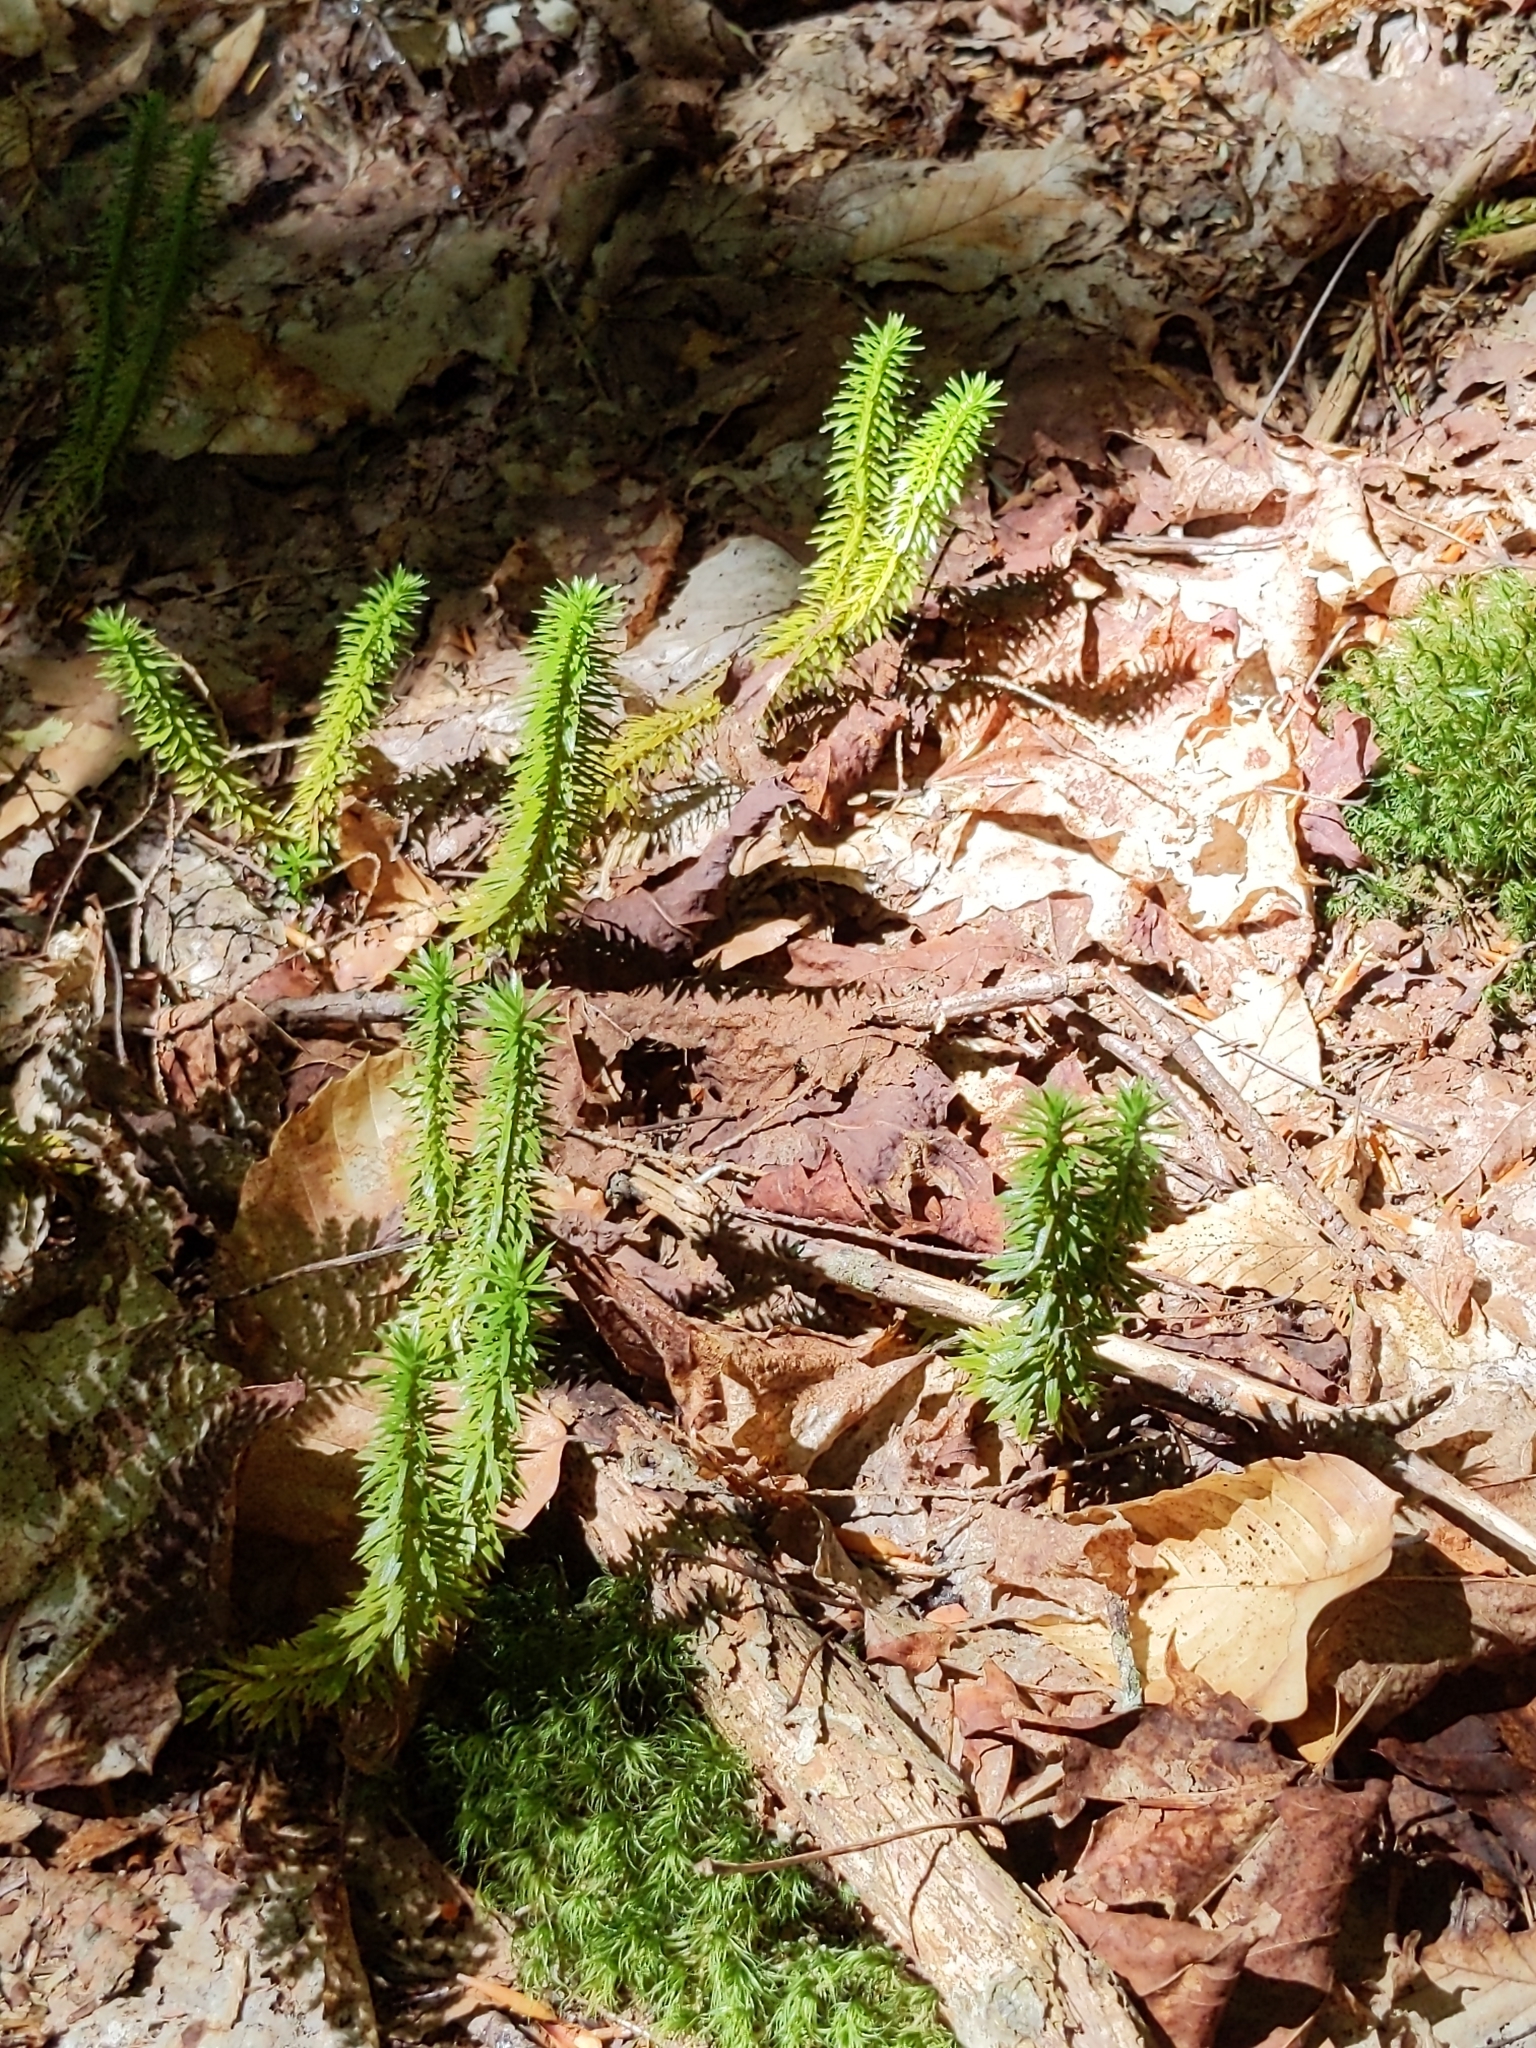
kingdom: Plantae
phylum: Tracheophyta
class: Lycopodiopsida
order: Lycopodiales
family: Lycopodiaceae
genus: Huperzia
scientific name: Huperzia lucidula
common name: Shining clubmoss
